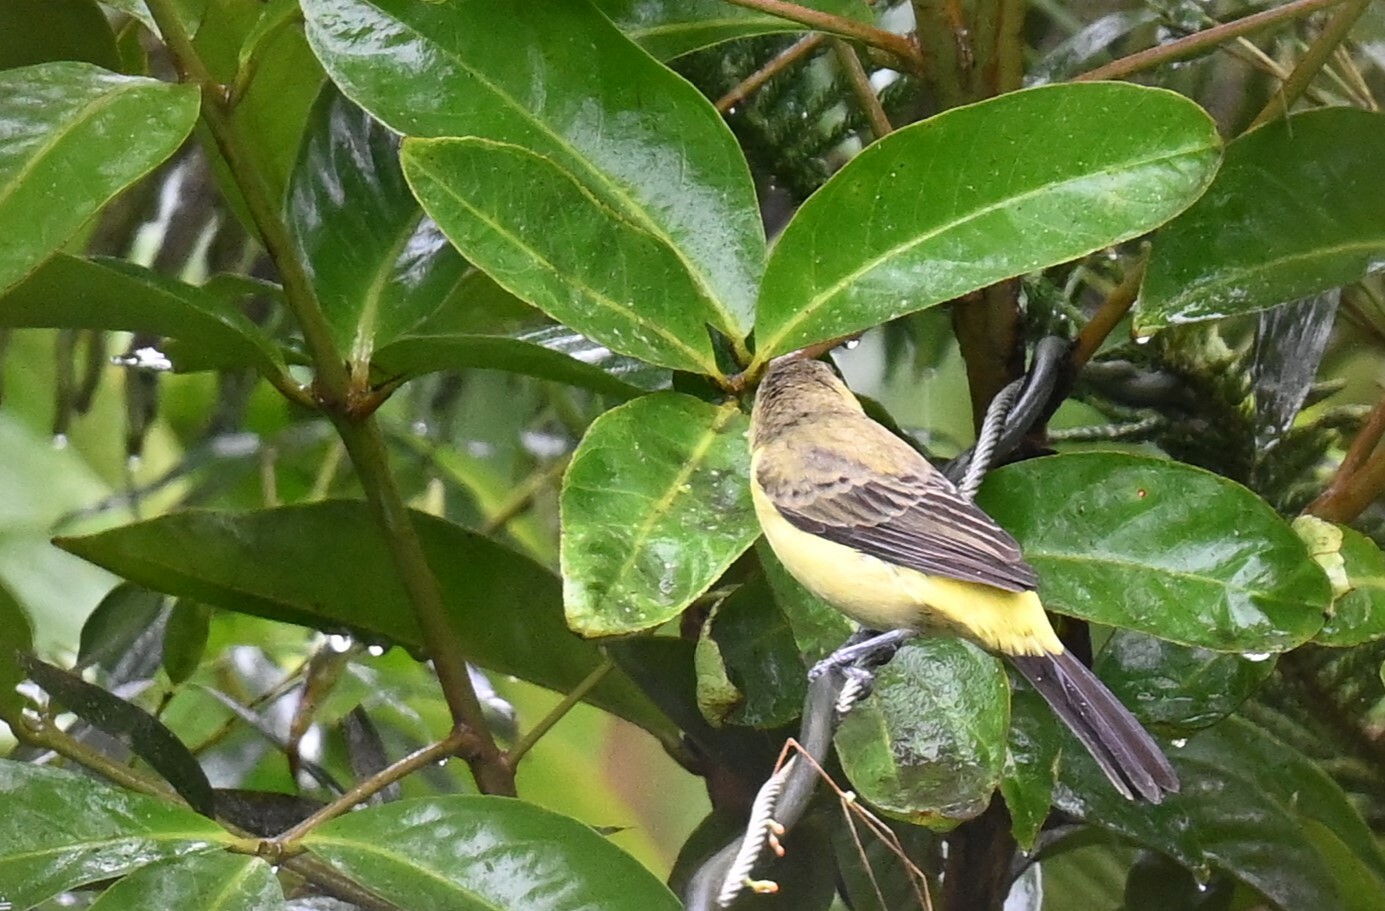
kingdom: Animalia
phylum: Chordata
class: Aves
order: Passeriformes
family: Thraupidae
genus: Ramphocelus
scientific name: Ramphocelus flammigerus
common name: Flame-rumped tanager
